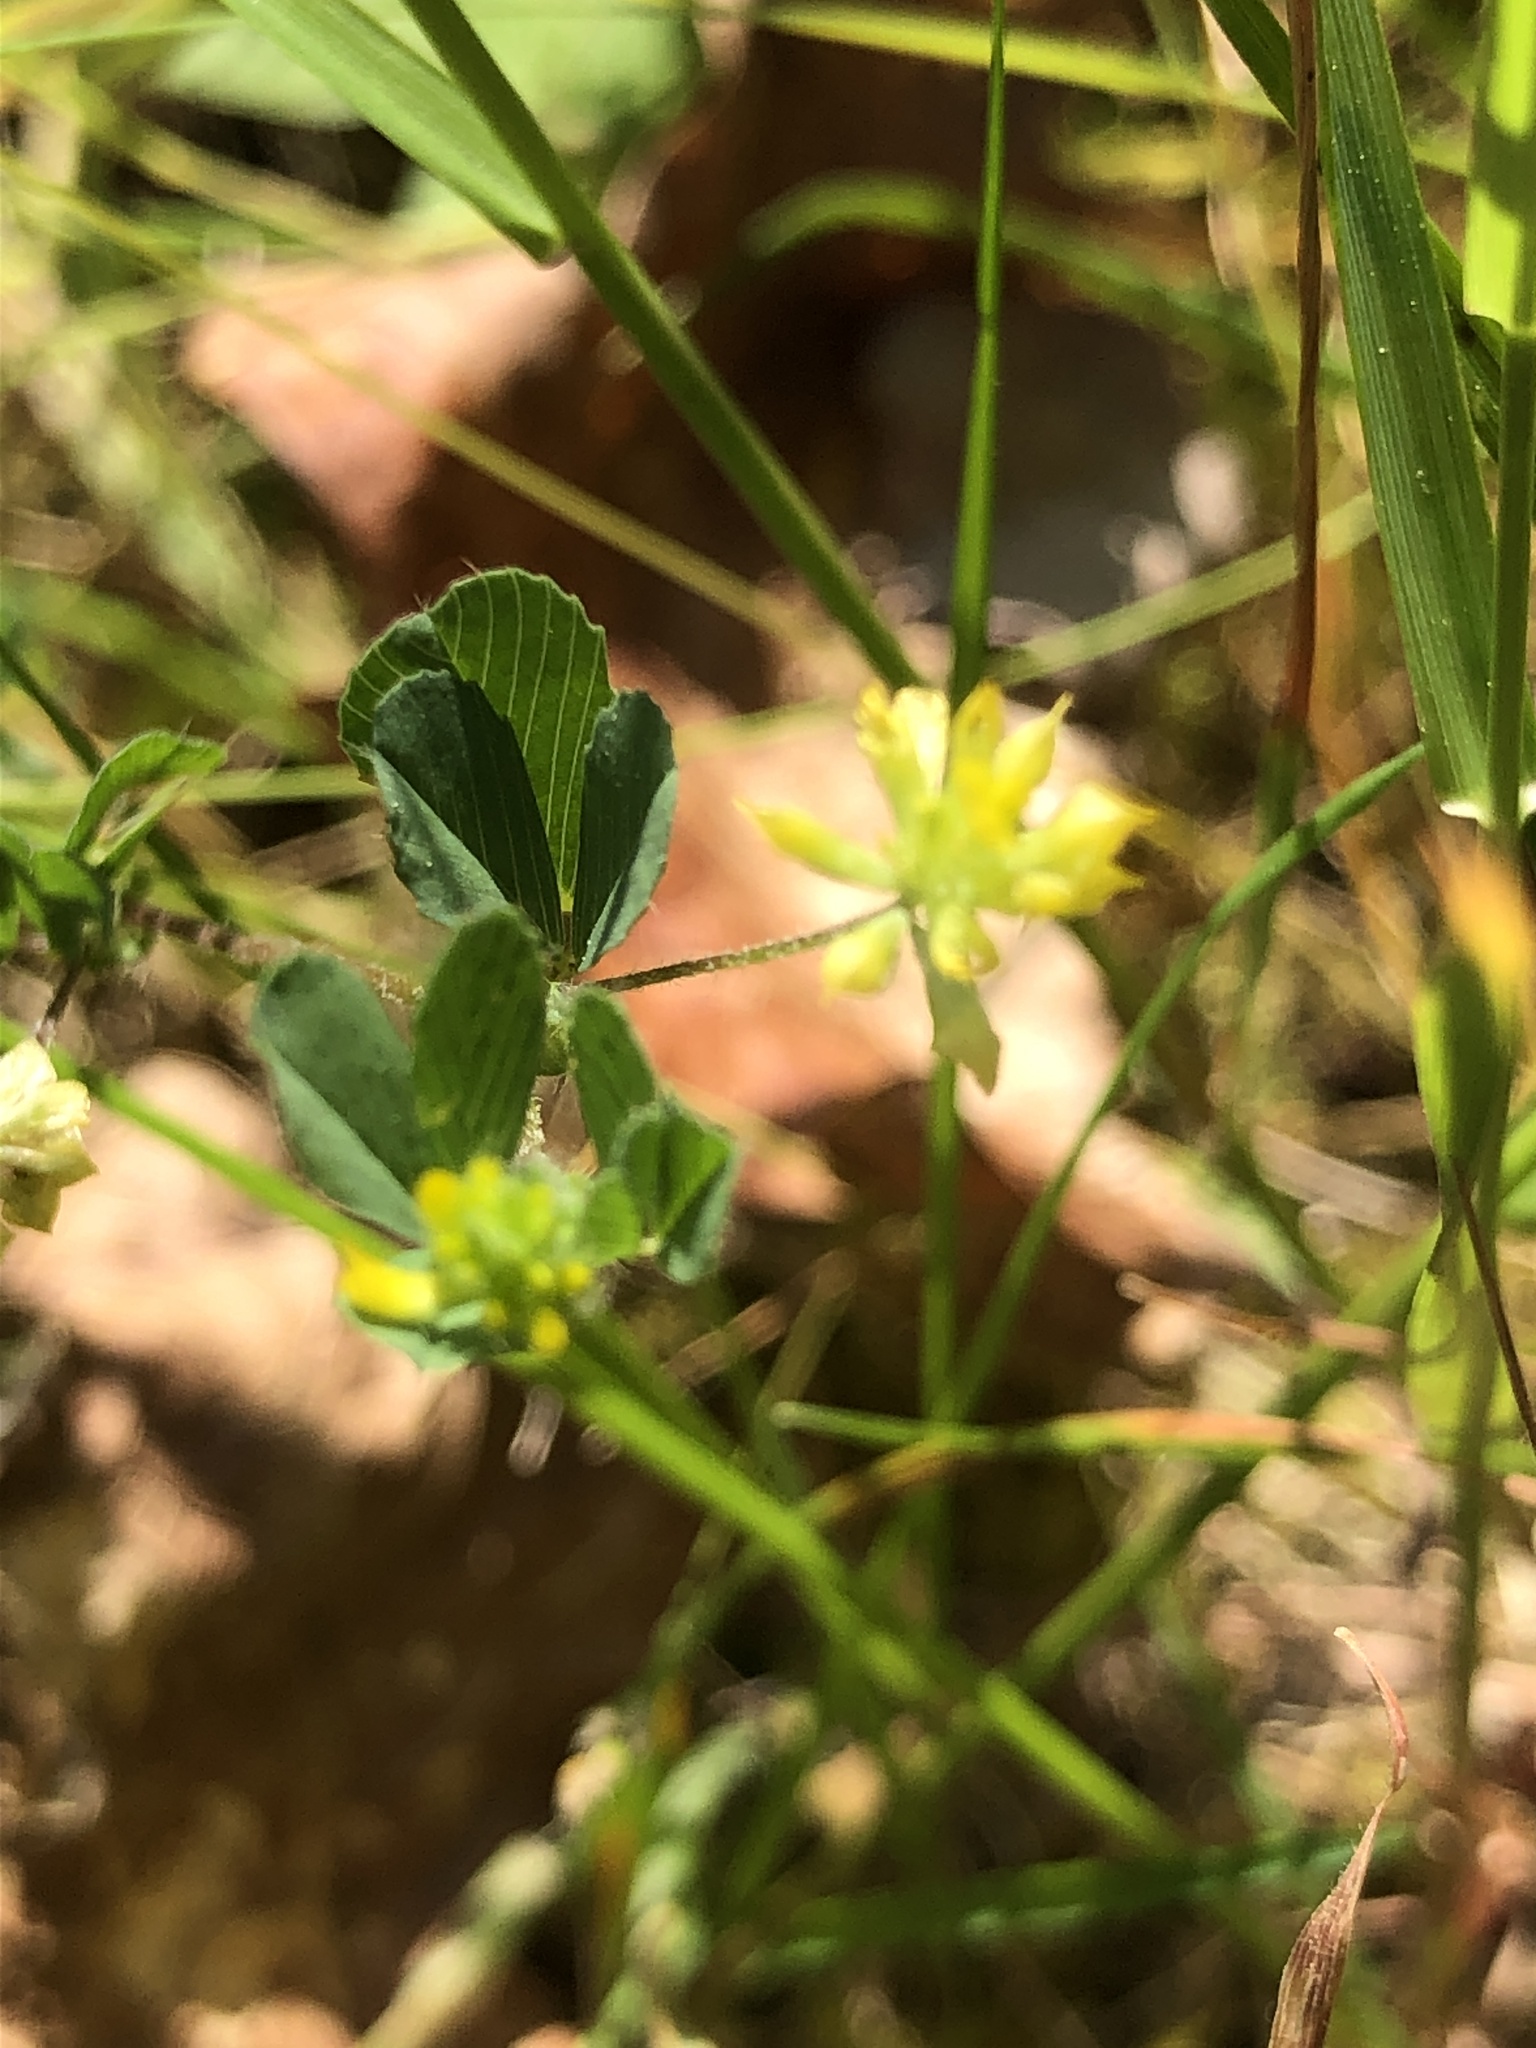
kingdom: Plantae
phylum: Tracheophyta
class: Magnoliopsida
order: Fabales
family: Fabaceae
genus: Trifolium
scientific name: Trifolium dubium
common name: Suckling clover
